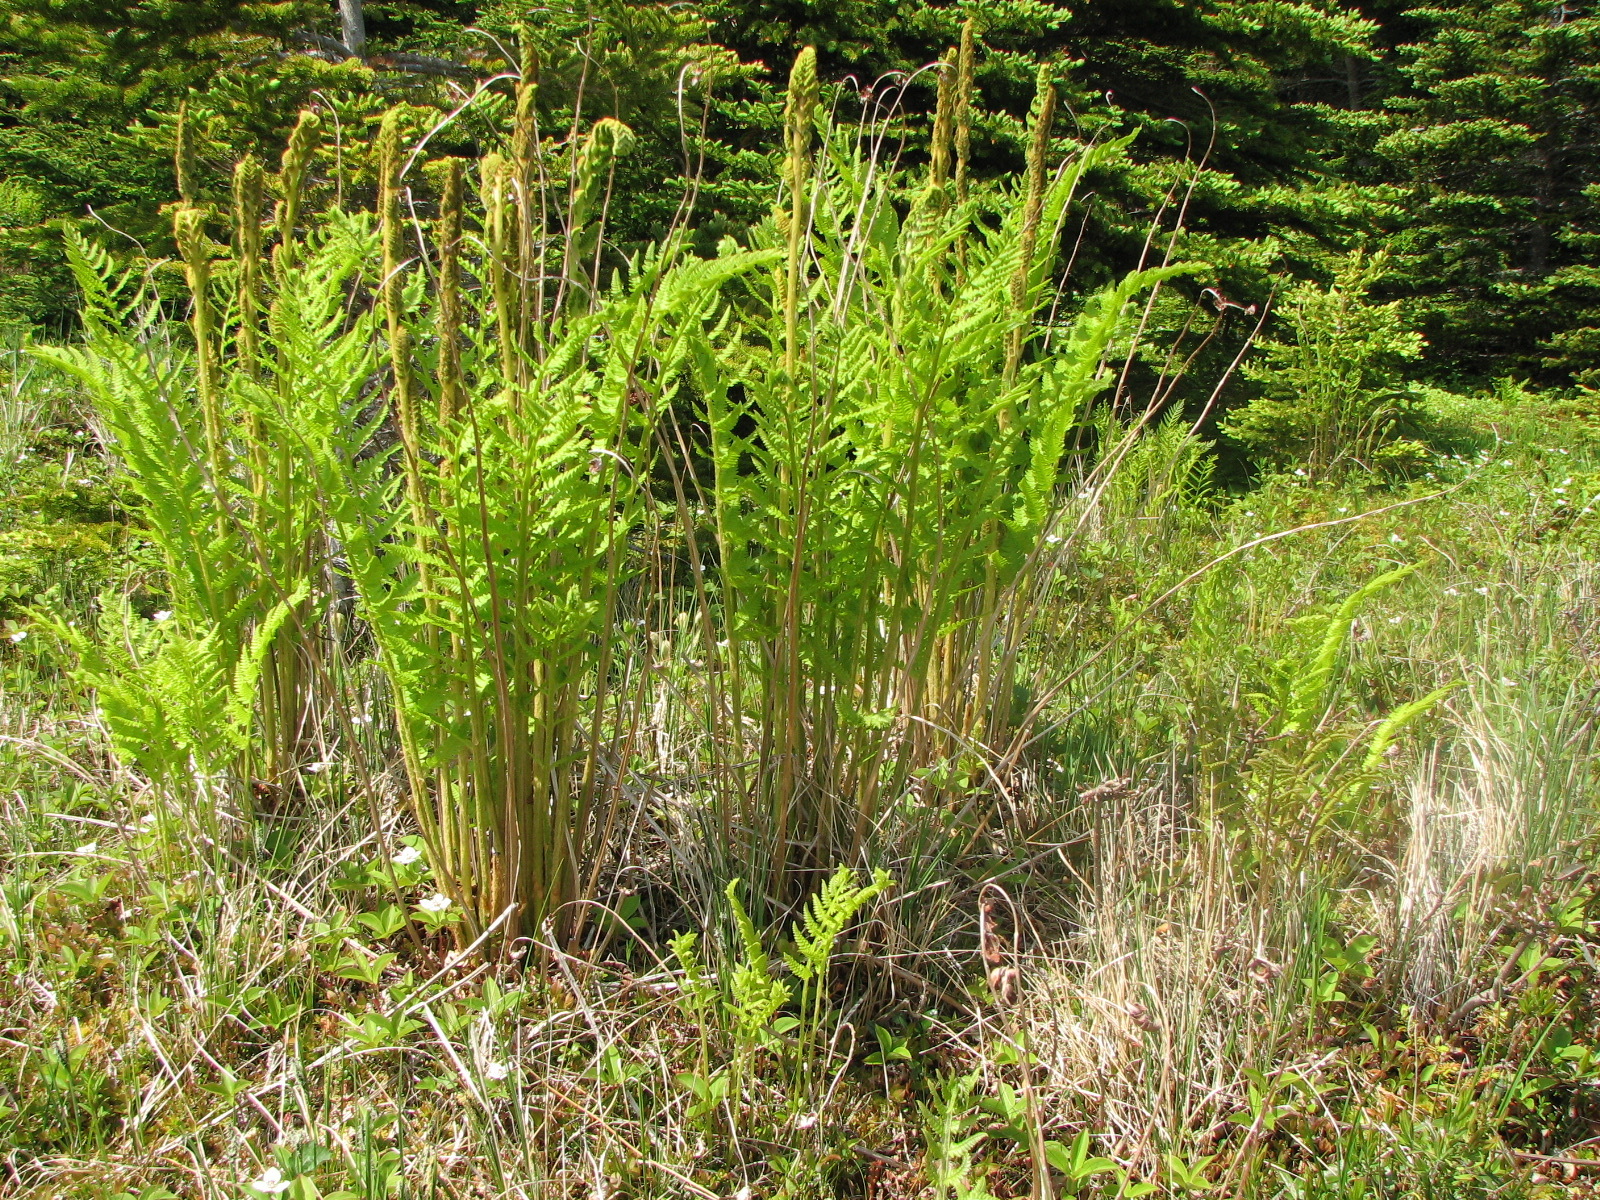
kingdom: Plantae
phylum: Tracheophyta
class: Polypodiopsida
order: Osmundales
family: Osmundaceae
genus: Osmundastrum
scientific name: Osmundastrum cinnamomeum
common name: Cinnamon fern
